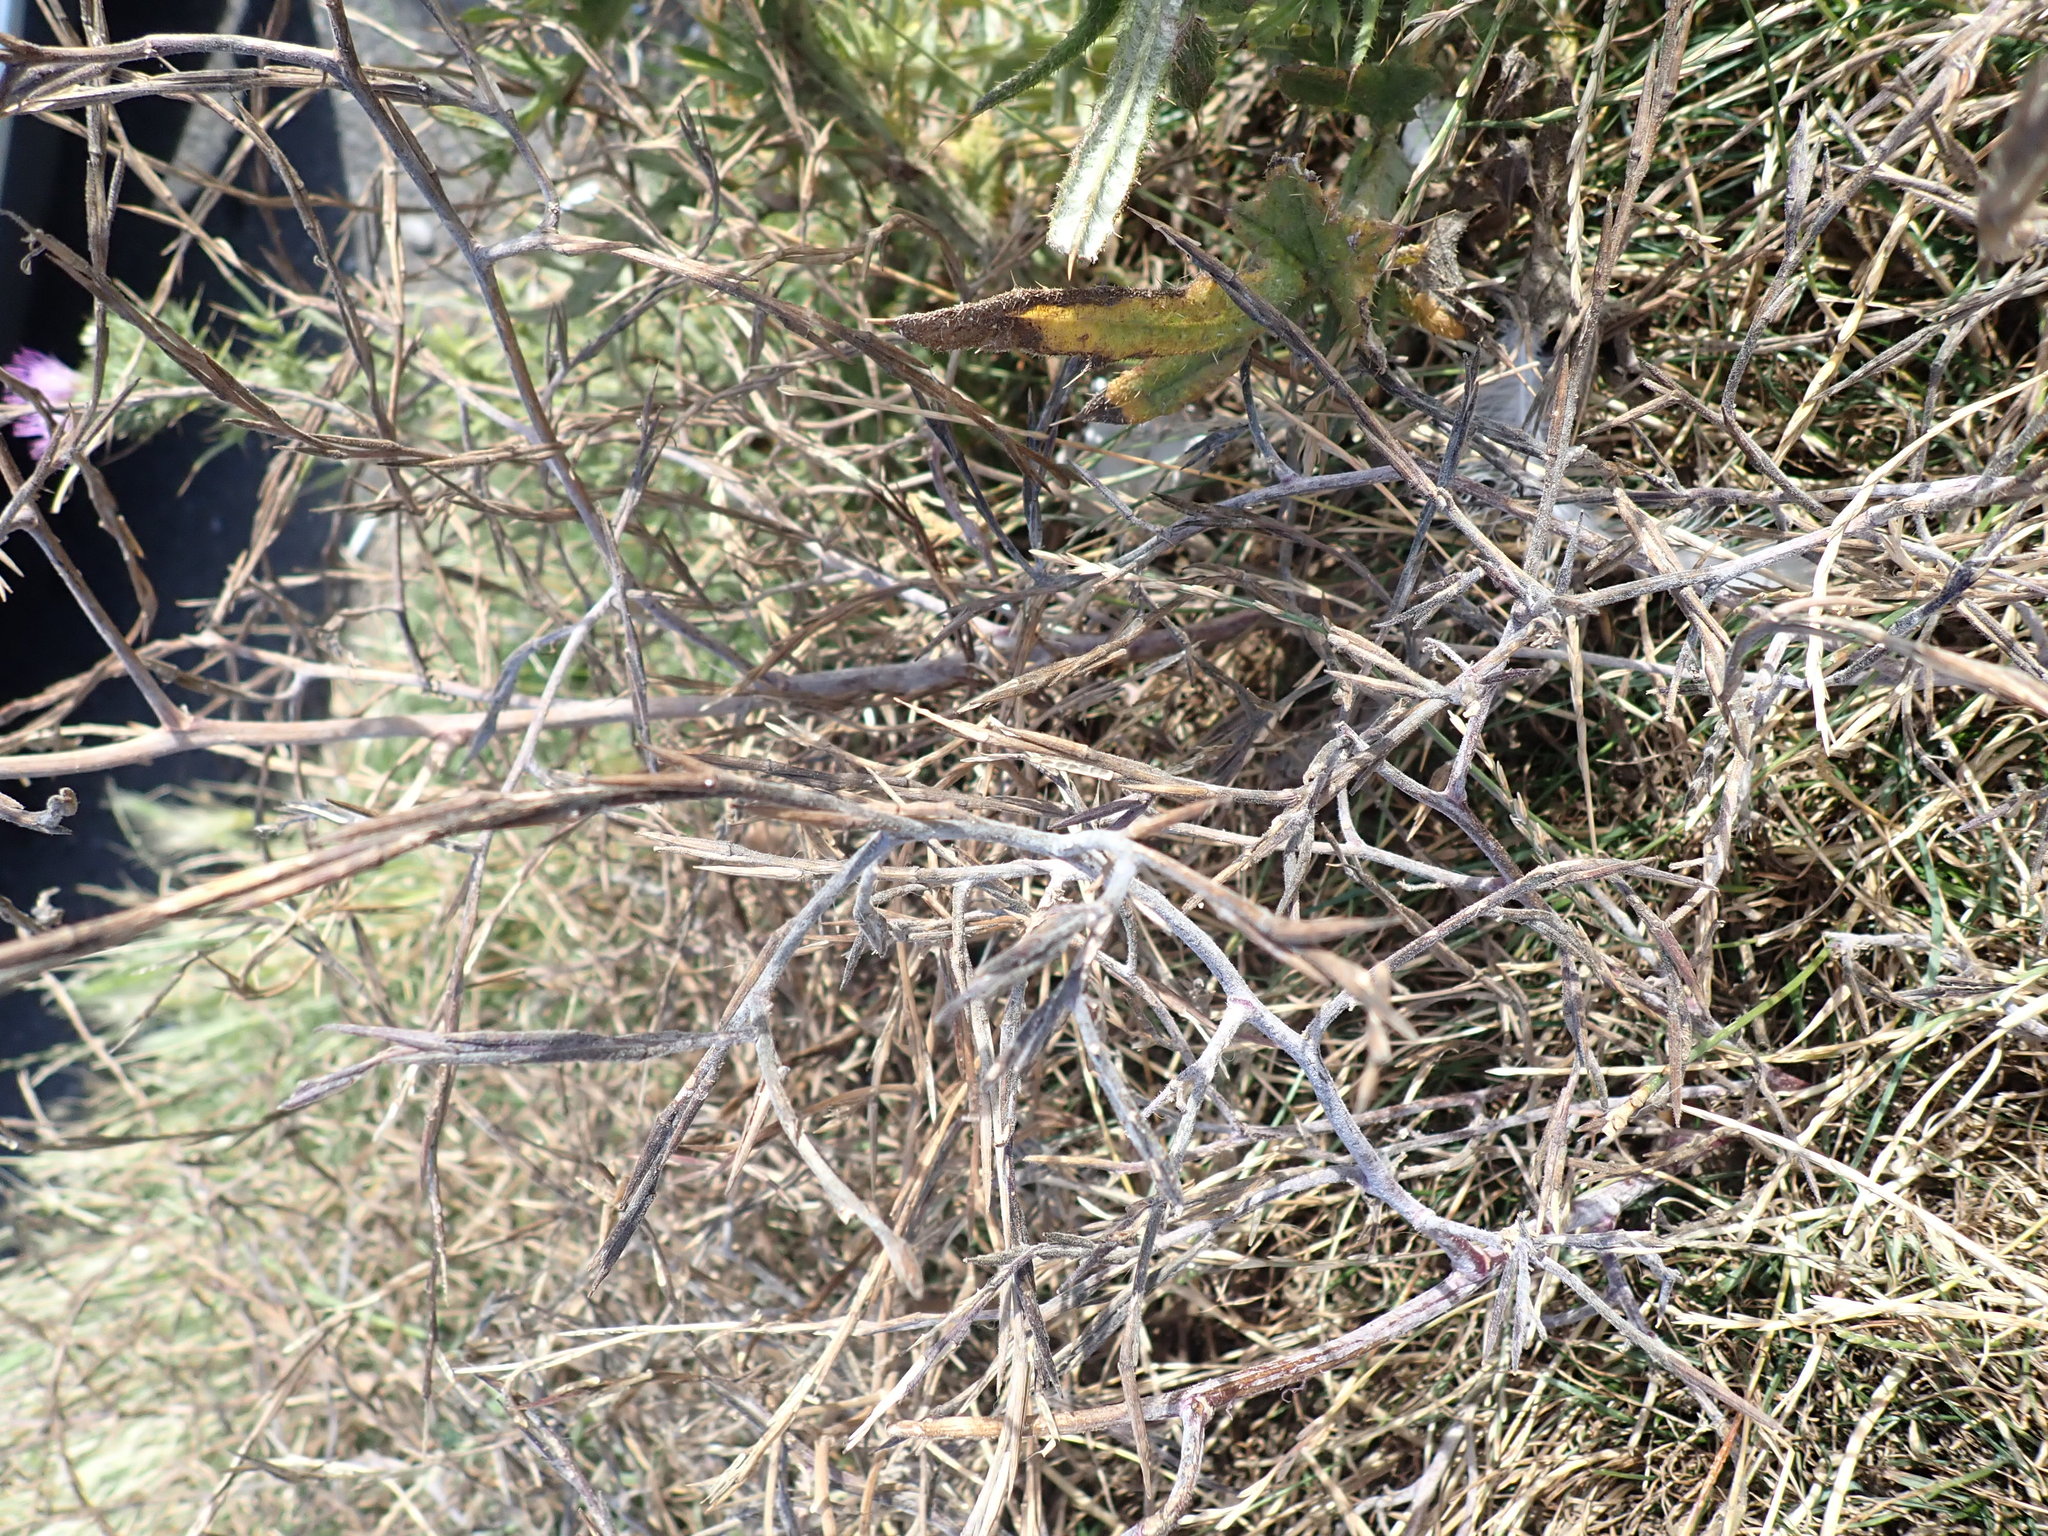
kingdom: Plantae
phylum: Tracheophyta
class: Magnoliopsida
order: Brassicales
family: Brassicaceae
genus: Sisymbrium
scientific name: Sisymbrium officinale
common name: Hedge mustard
